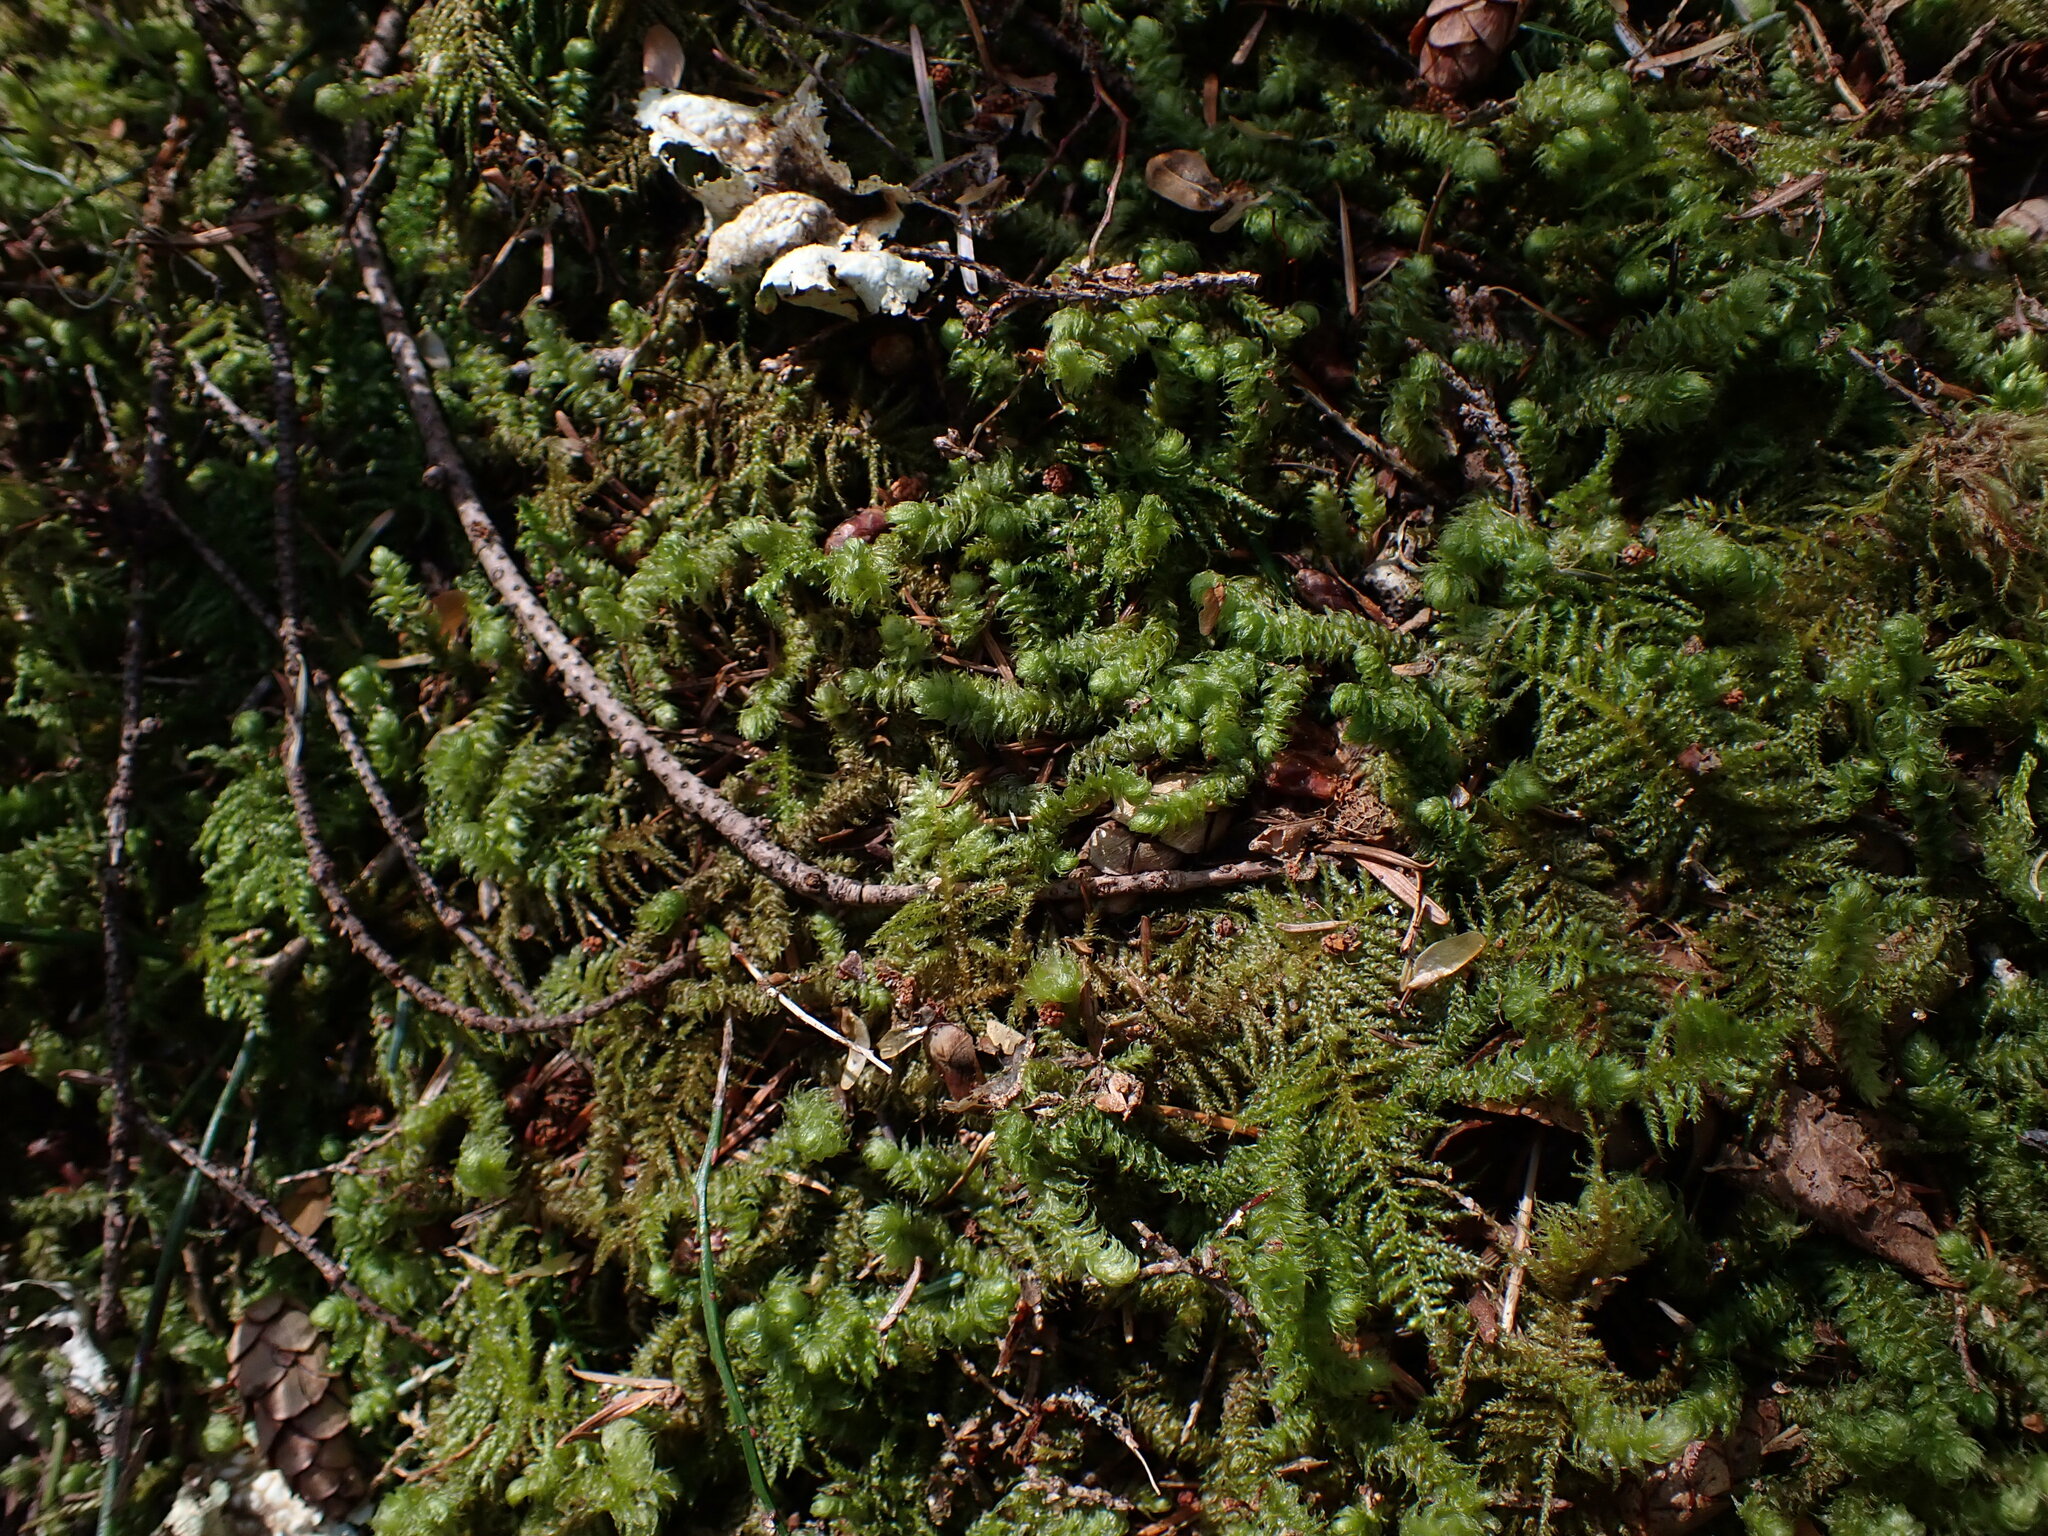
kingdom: Plantae
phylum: Bryophyta
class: Bryopsida
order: Hypnales
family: Hylocomiaceae
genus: Rhytidiopsis
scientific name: Rhytidiopsis robusta
